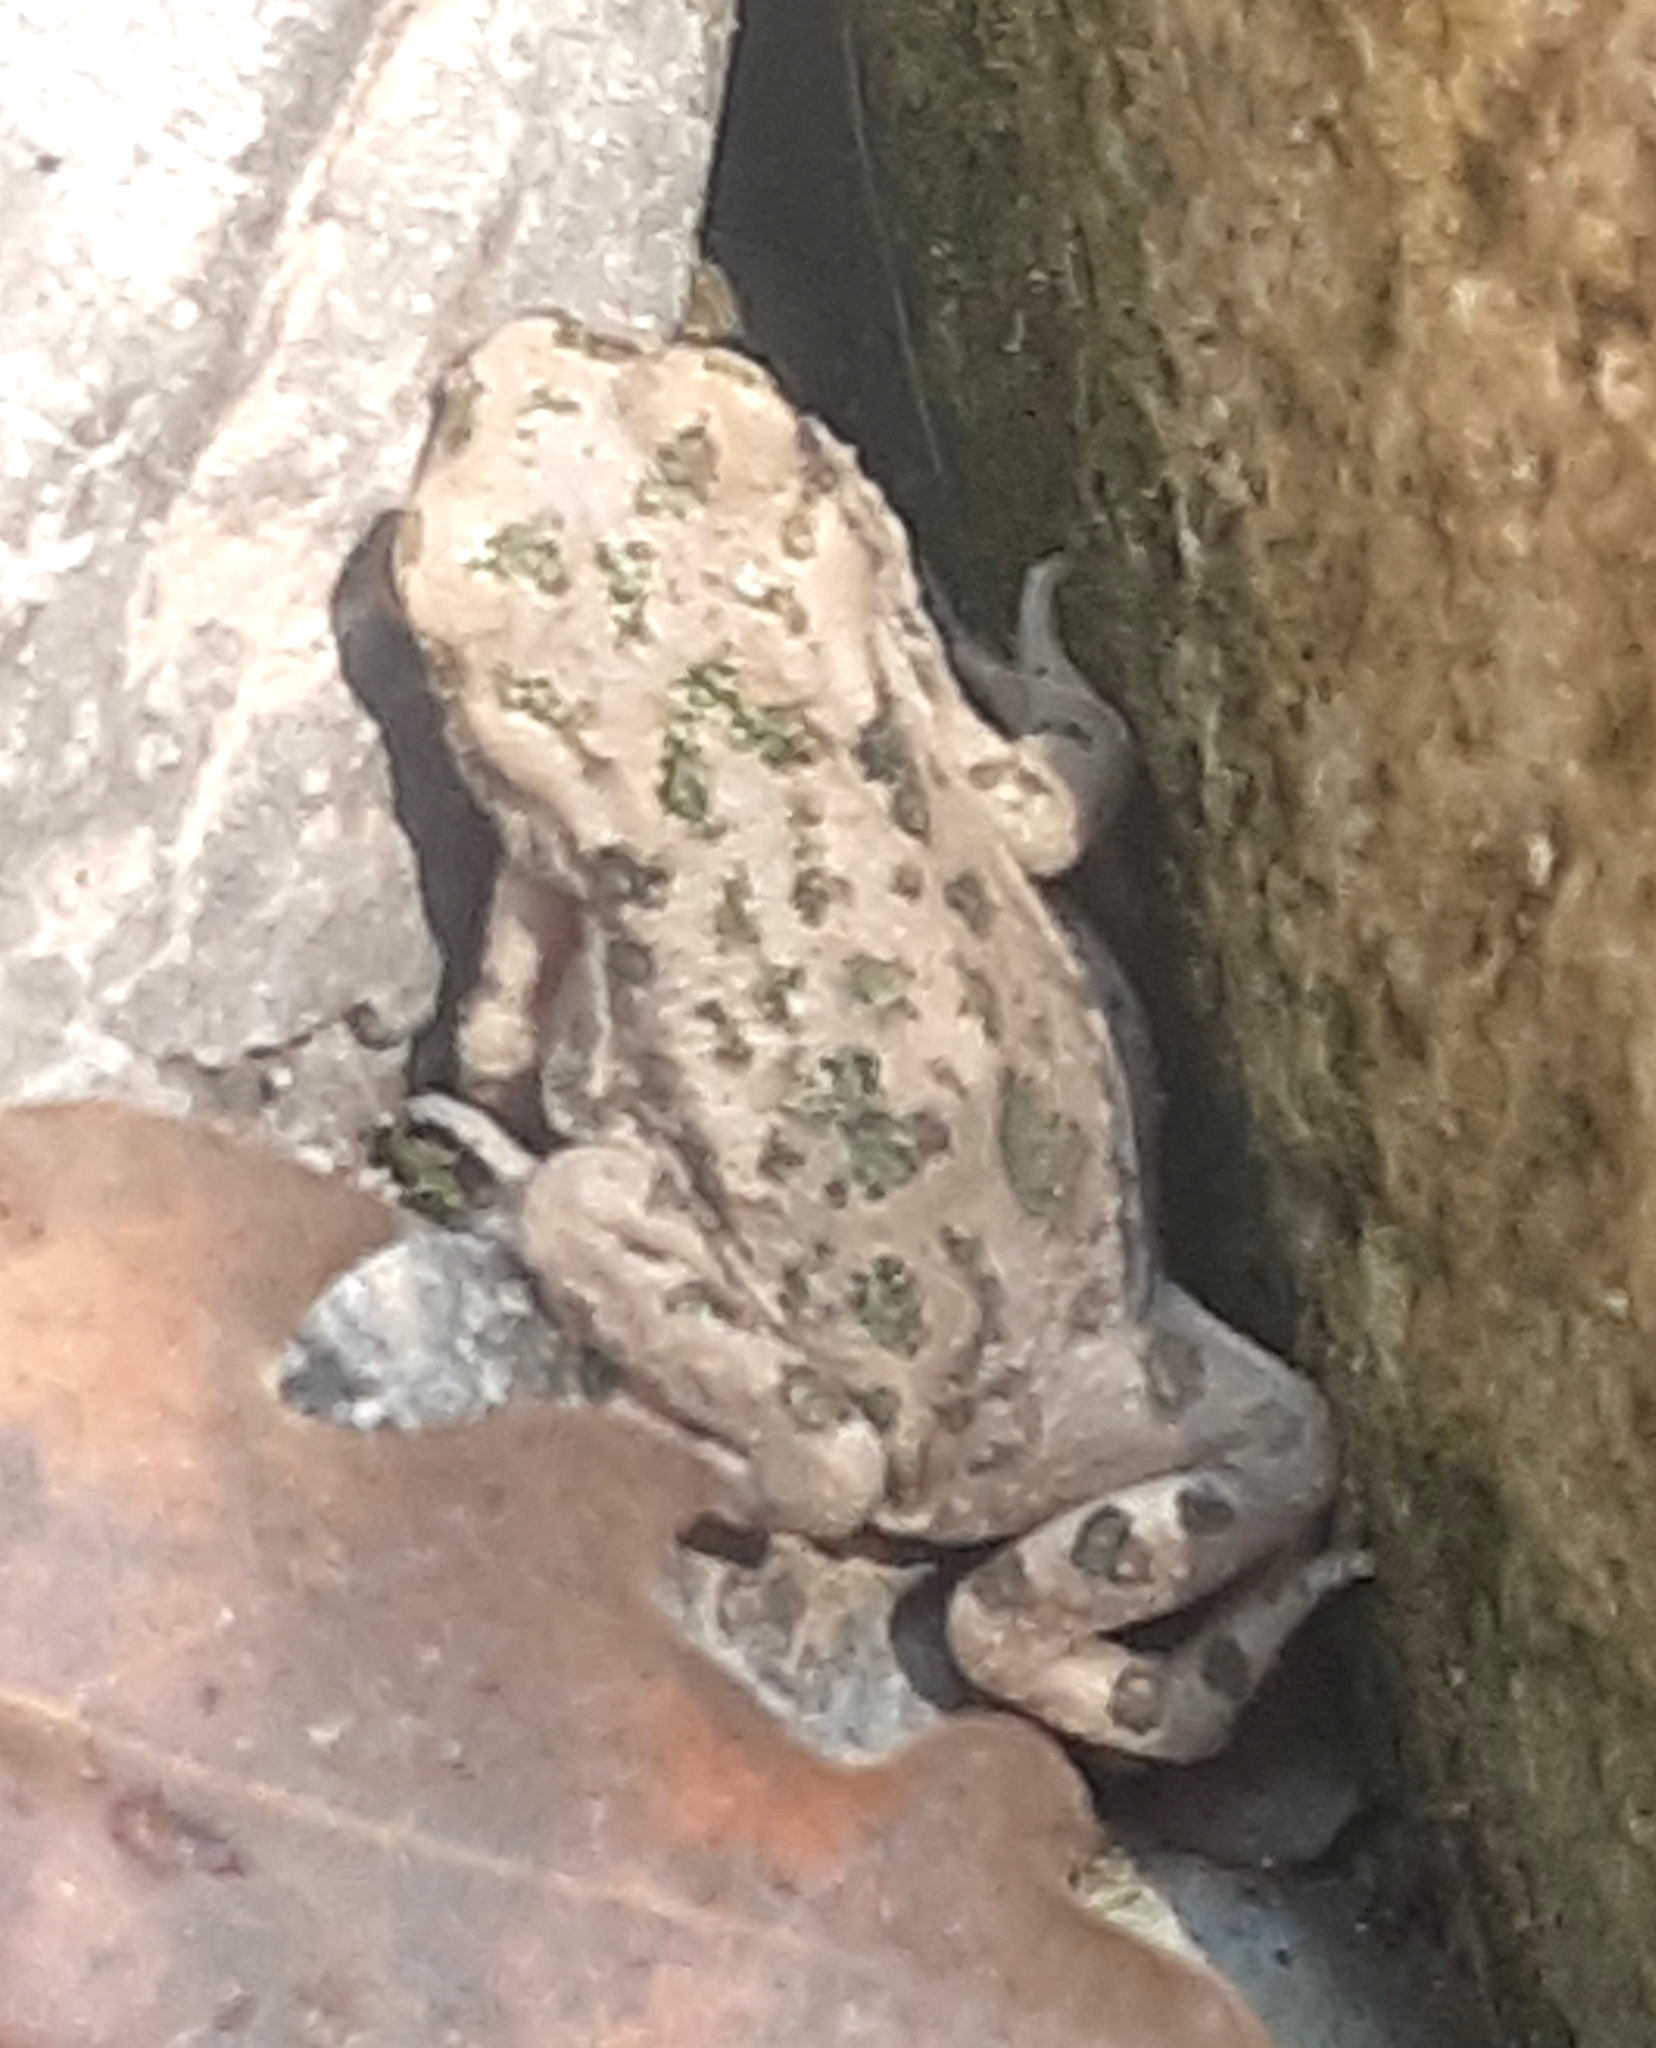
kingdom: Animalia
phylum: Chordata
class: Amphibia
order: Anura
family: Bufonidae
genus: Bufotes
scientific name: Bufotes cypriensis
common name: Cyprus green toad
